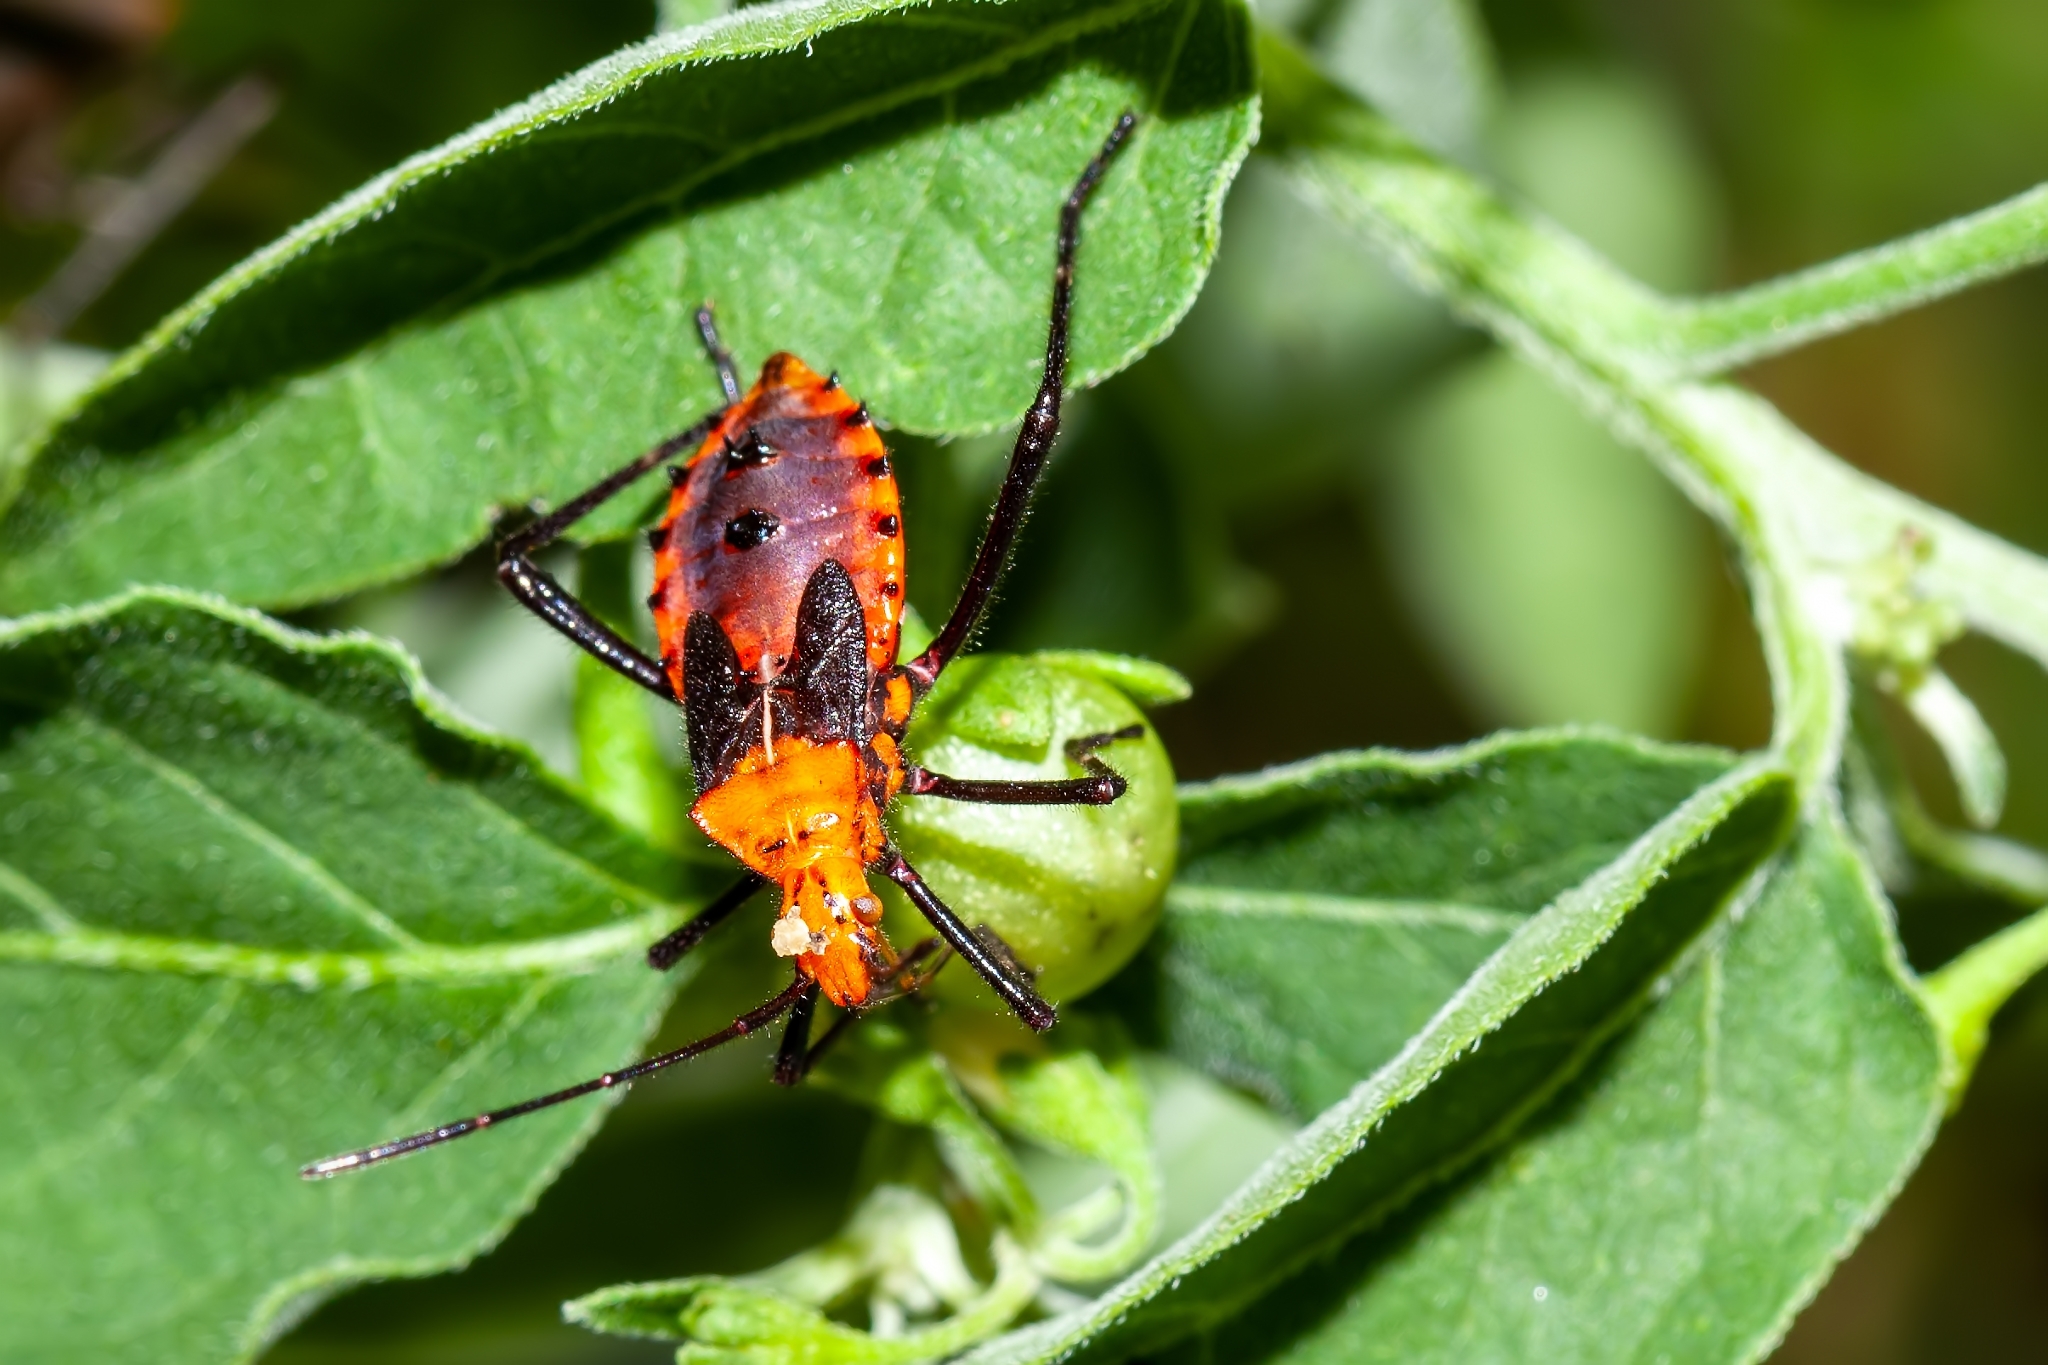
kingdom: Animalia
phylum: Arthropoda
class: Insecta
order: Hemiptera
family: Coreidae
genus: Phthiacnemia
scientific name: Phthiacnemia picta
